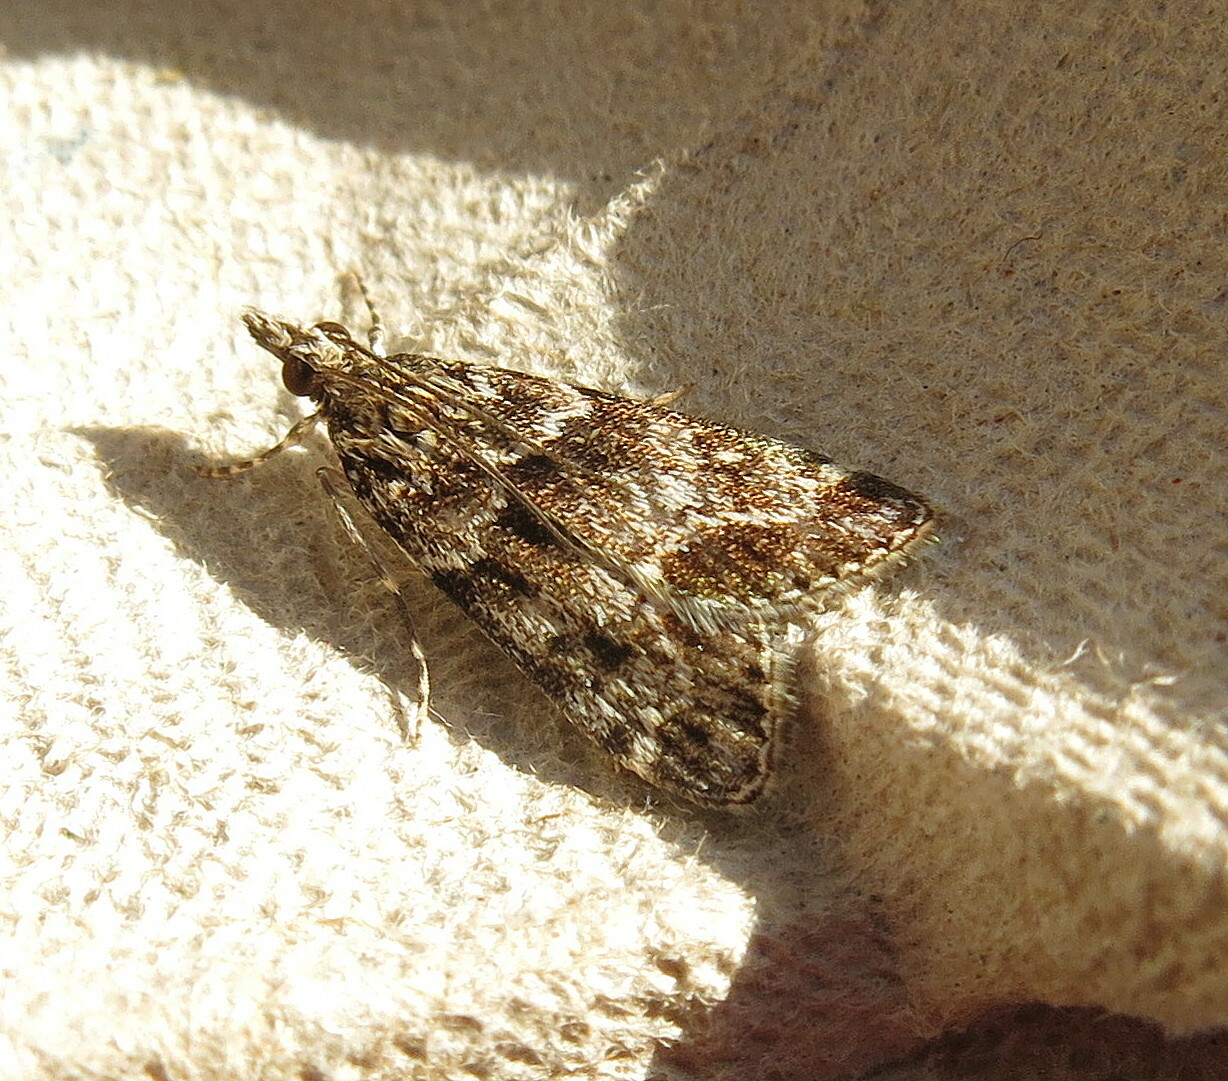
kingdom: Animalia
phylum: Arthropoda
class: Insecta
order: Lepidoptera
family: Crambidae
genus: Eudonia
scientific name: Eudonia mercurella
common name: Small grey
